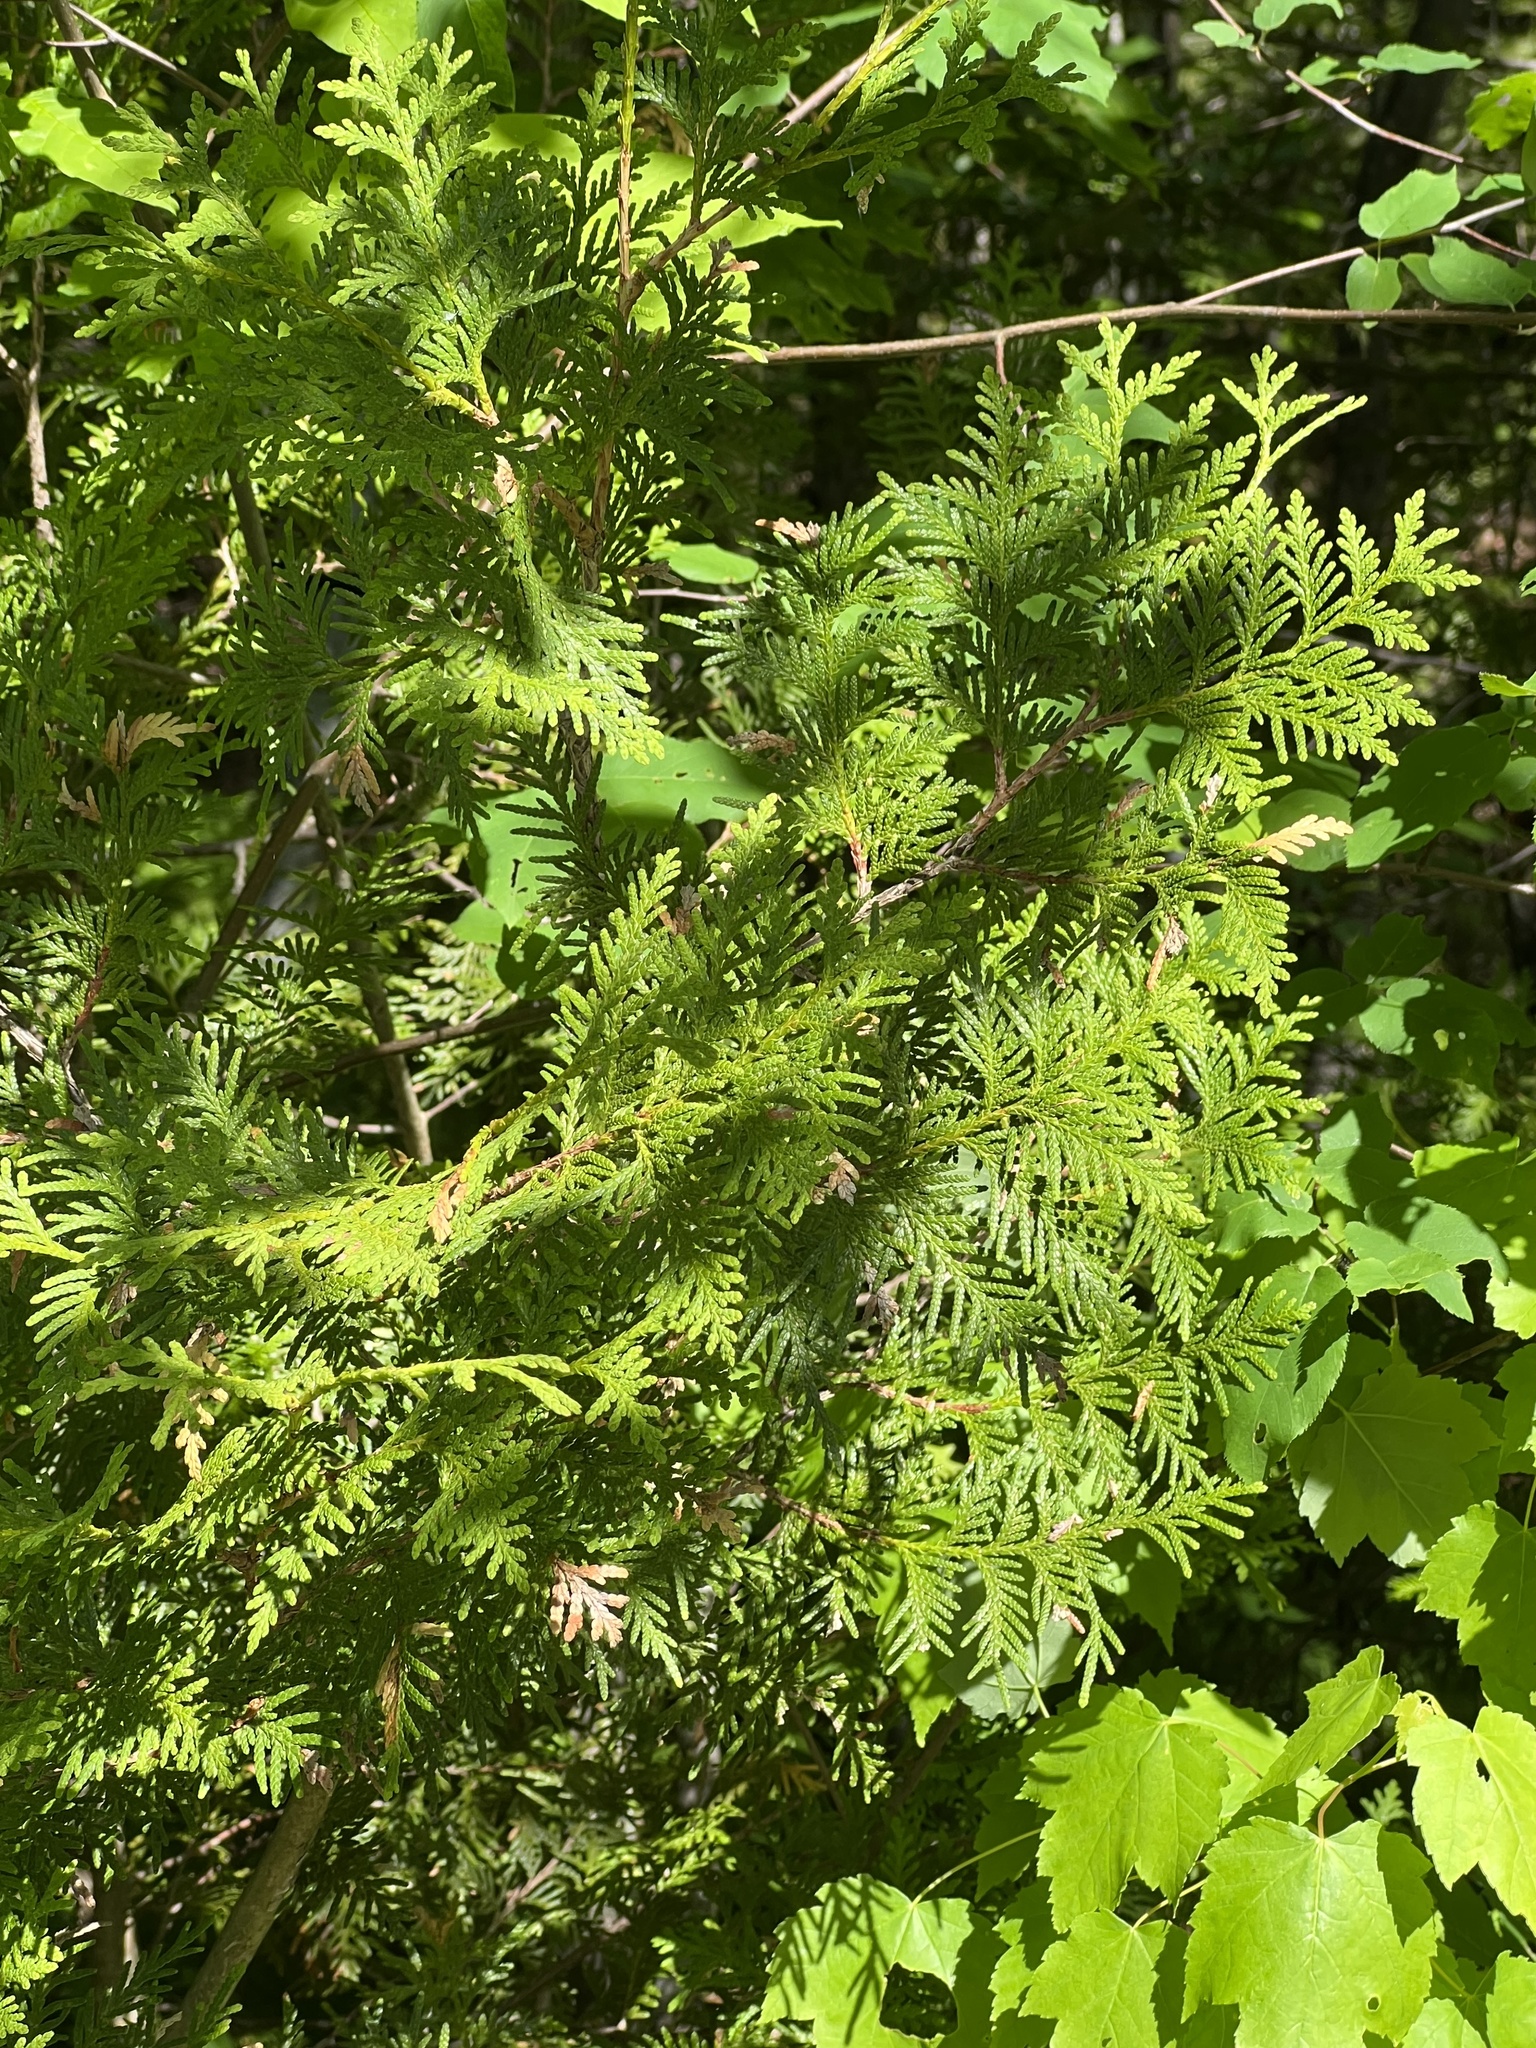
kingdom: Plantae
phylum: Tracheophyta
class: Pinopsida
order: Pinales
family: Cupressaceae
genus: Thuja
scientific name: Thuja occidentalis
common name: Northern white-cedar
